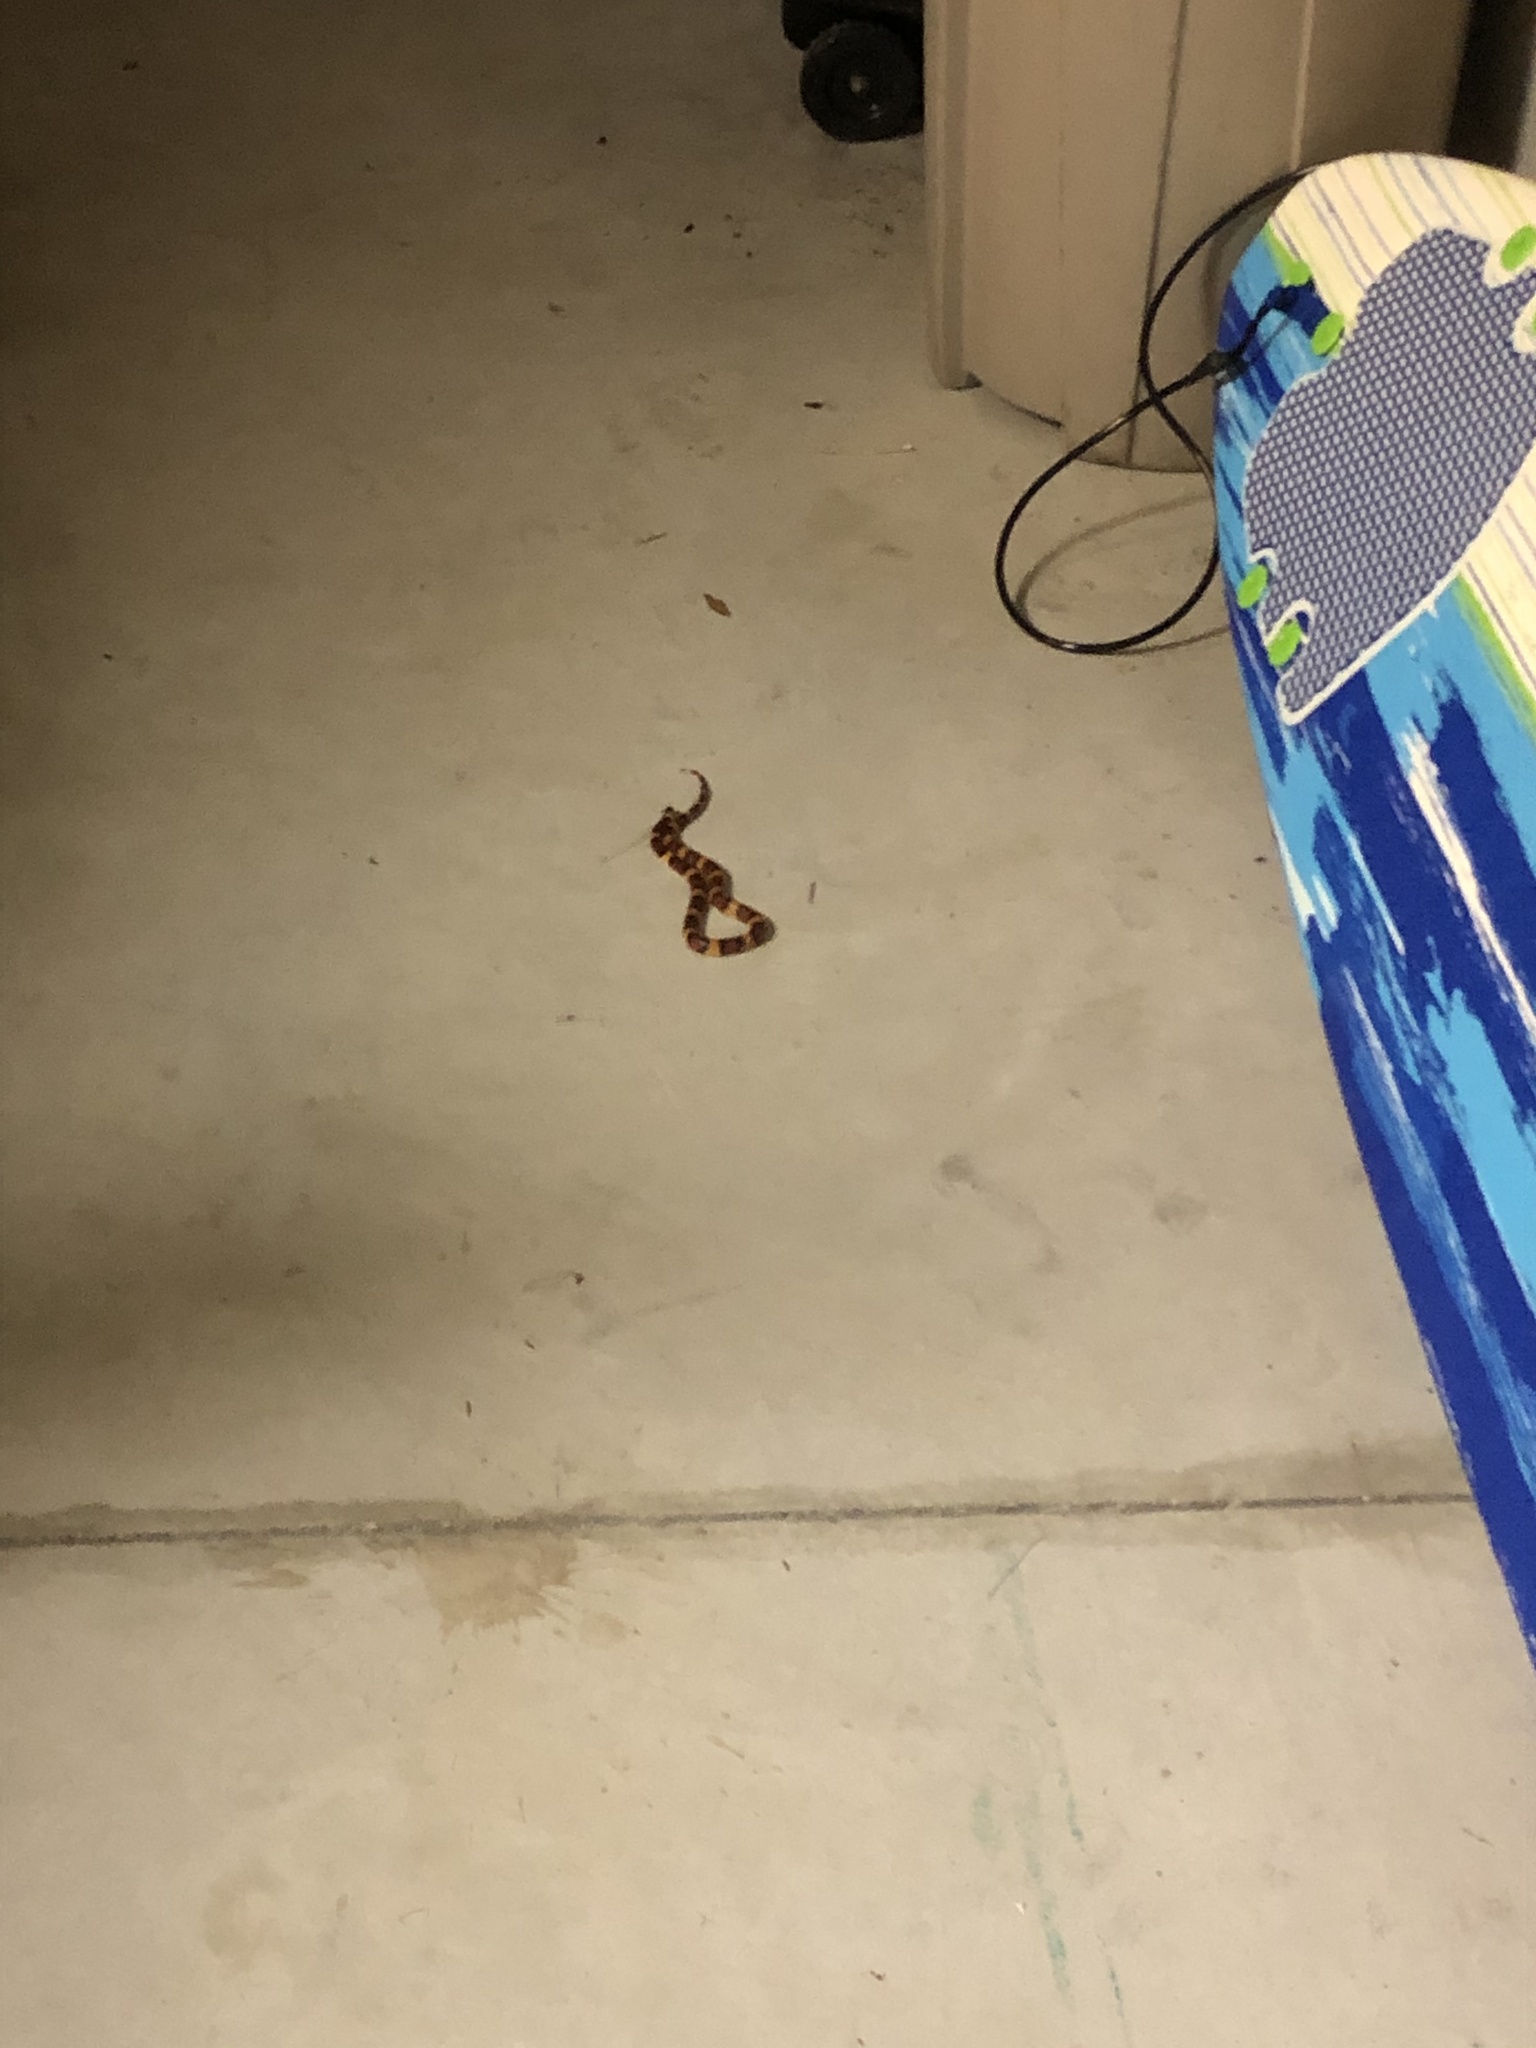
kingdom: Animalia
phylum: Chordata
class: Squamata
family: Colubridae
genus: Lampropeltis
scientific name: Lampropeltis elapsoides
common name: Scarlet kingsnake
